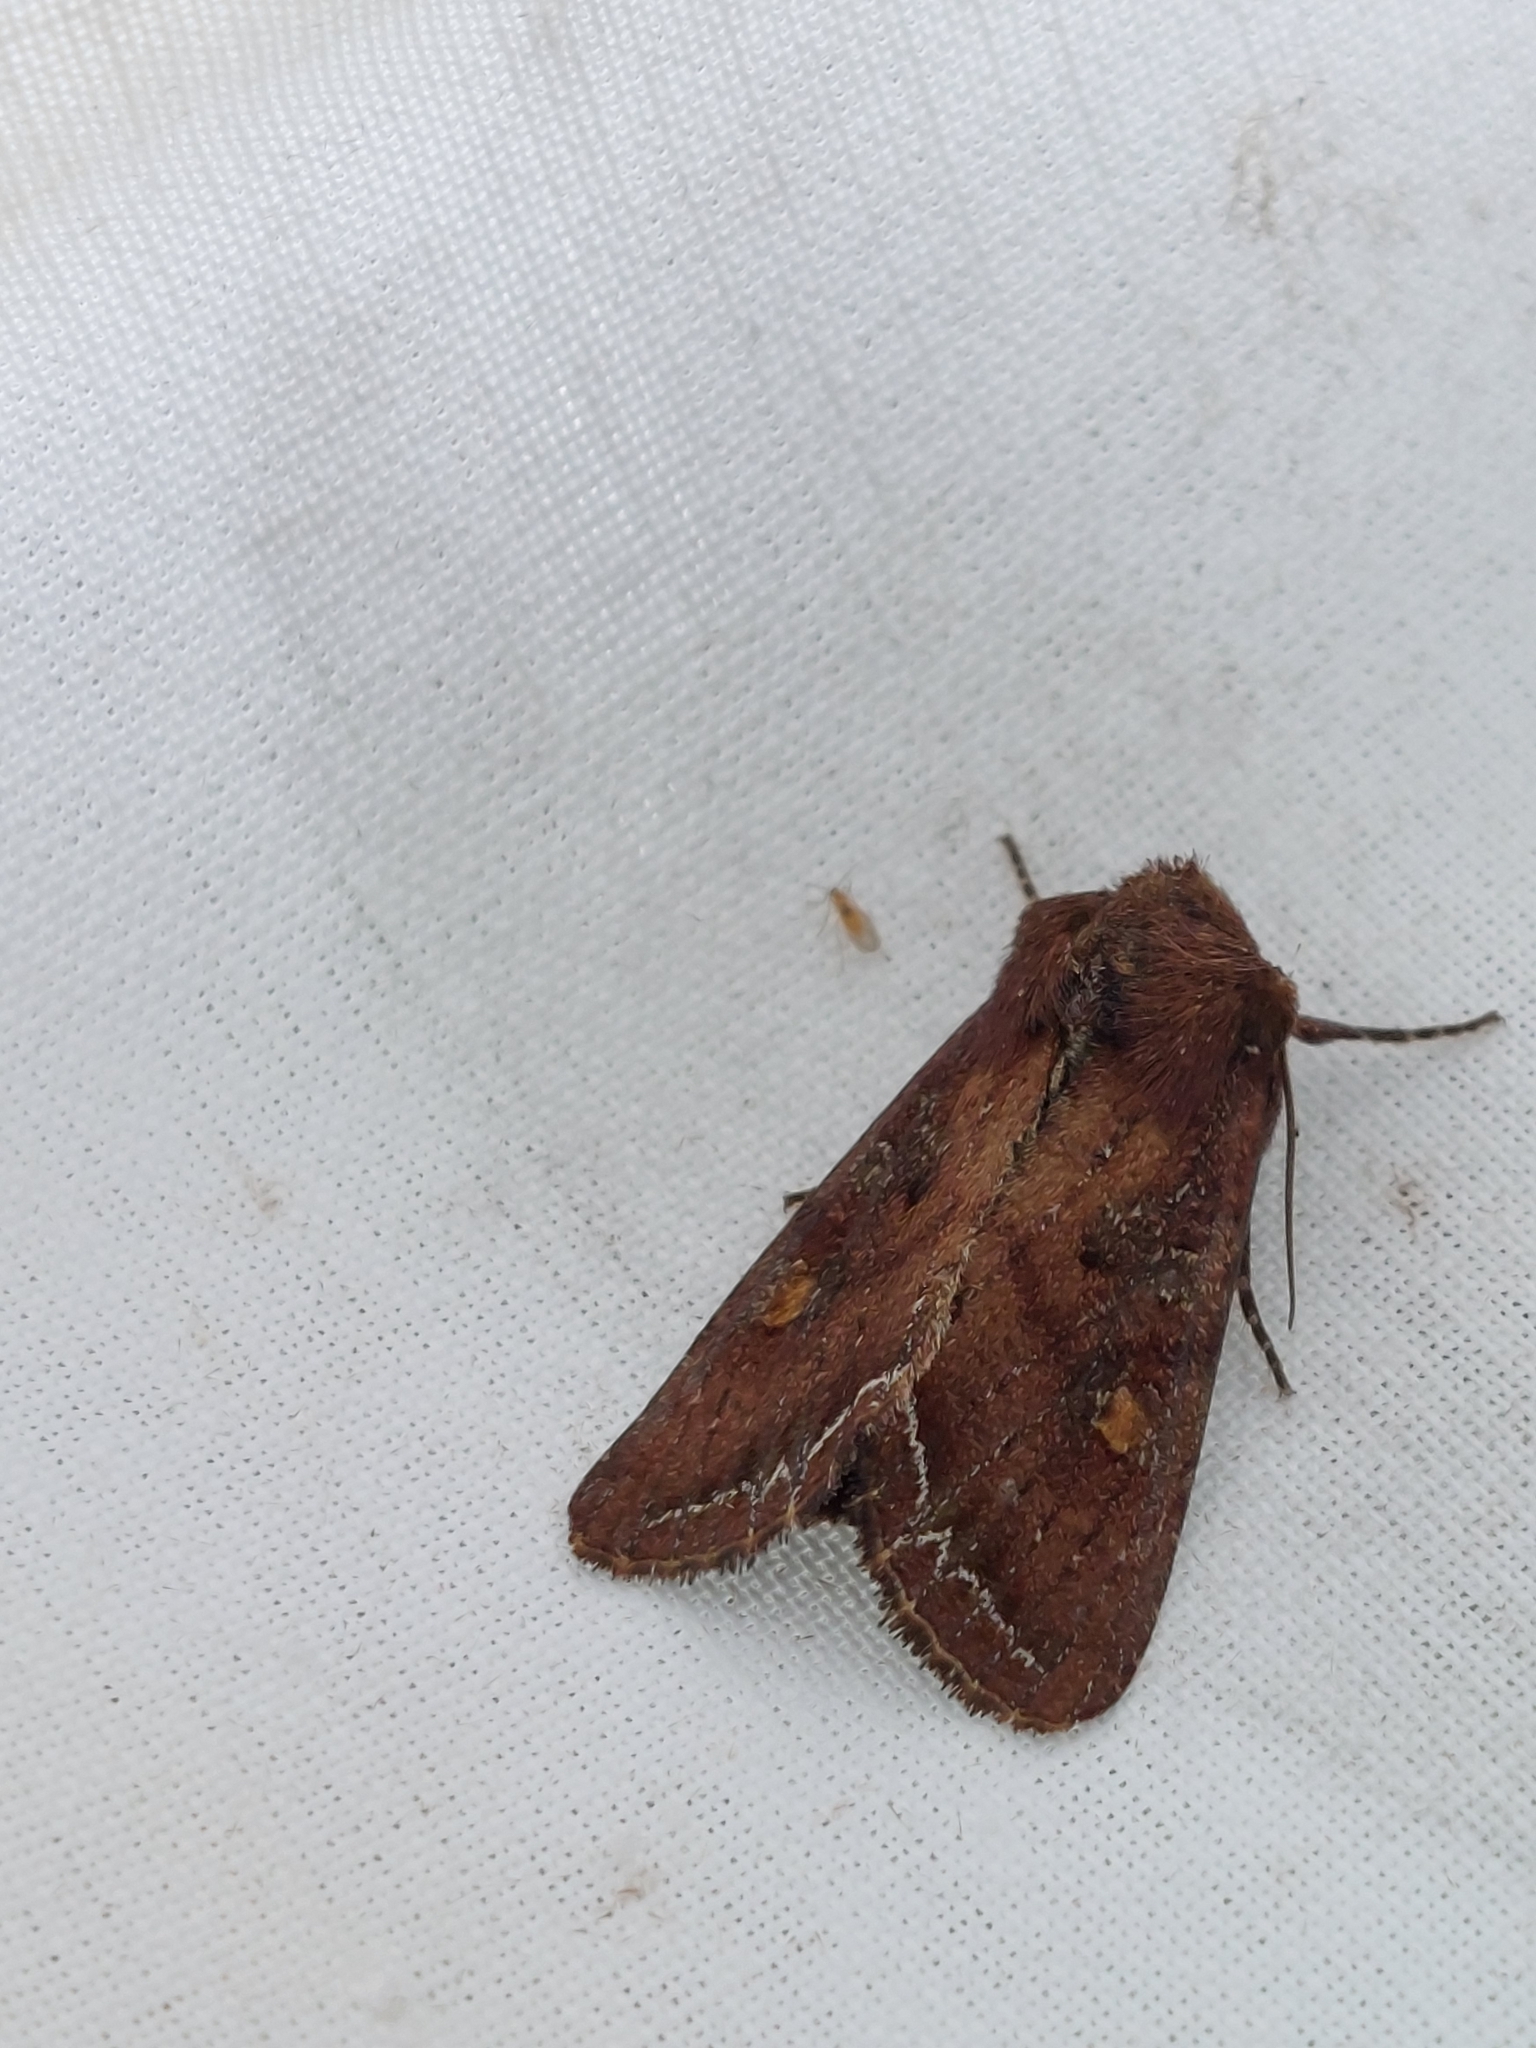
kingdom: Animalia
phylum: Arthropoda
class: Insecta
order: Lepidoptera
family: Noctuidae
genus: Lacanobia
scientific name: Lacanobia oleracea
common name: Bright-line brown-eye
